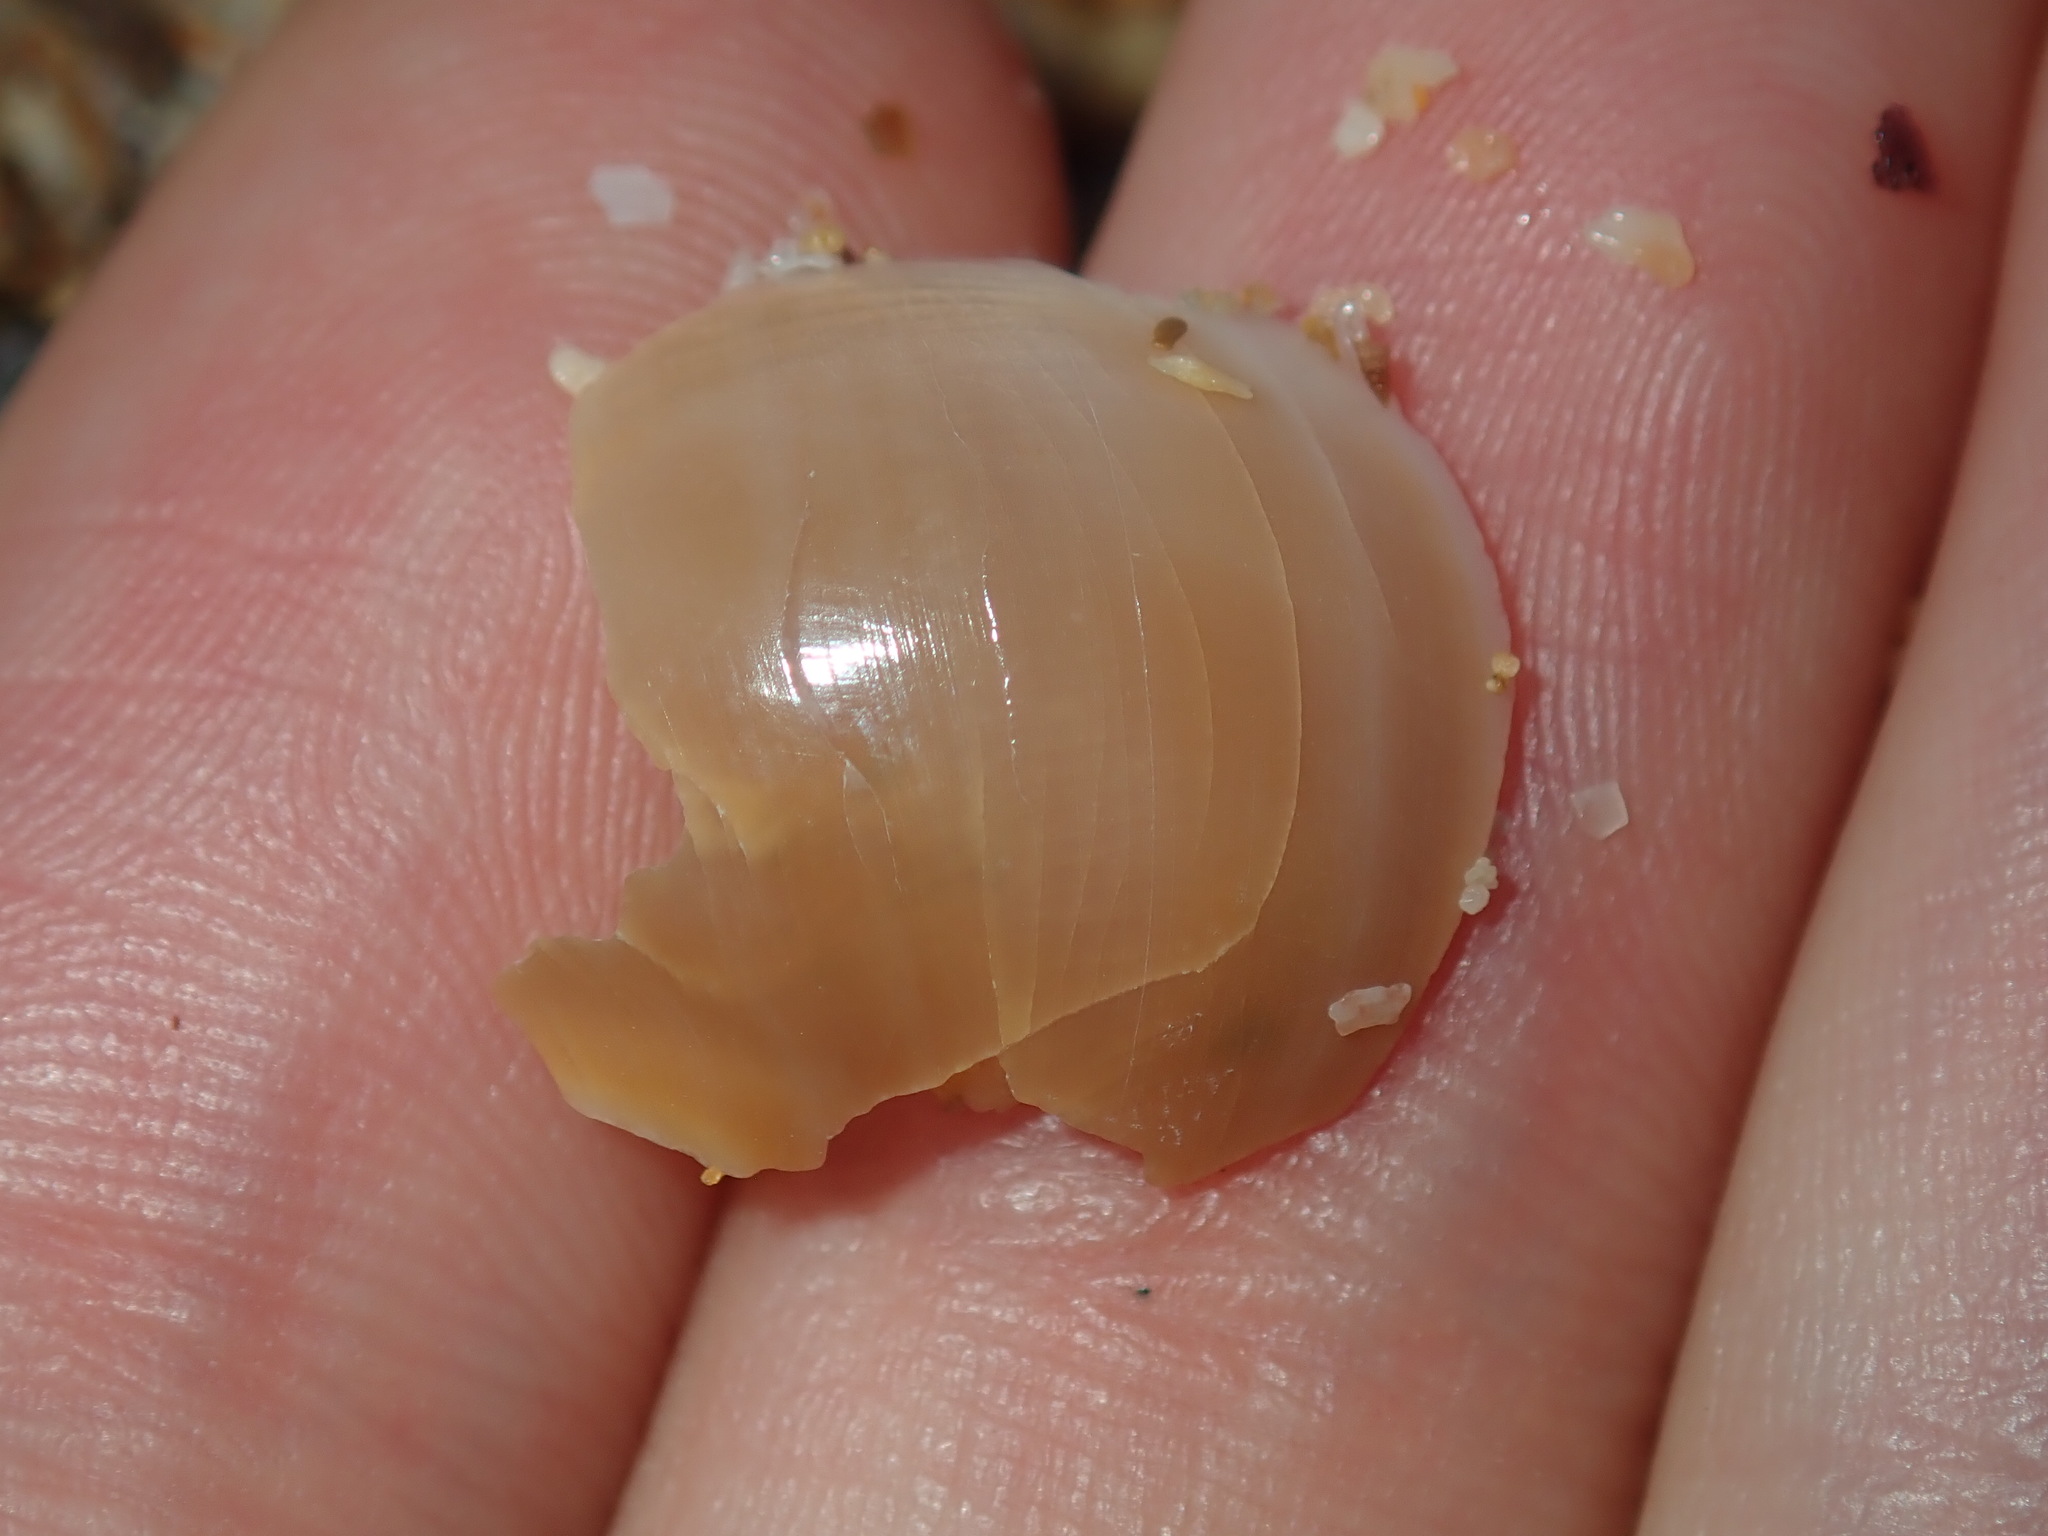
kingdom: Animalia
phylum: Mollusca
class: Gastropoda
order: Littorinimorpha
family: Naticidae
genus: Neverita
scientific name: Neverita didyma
